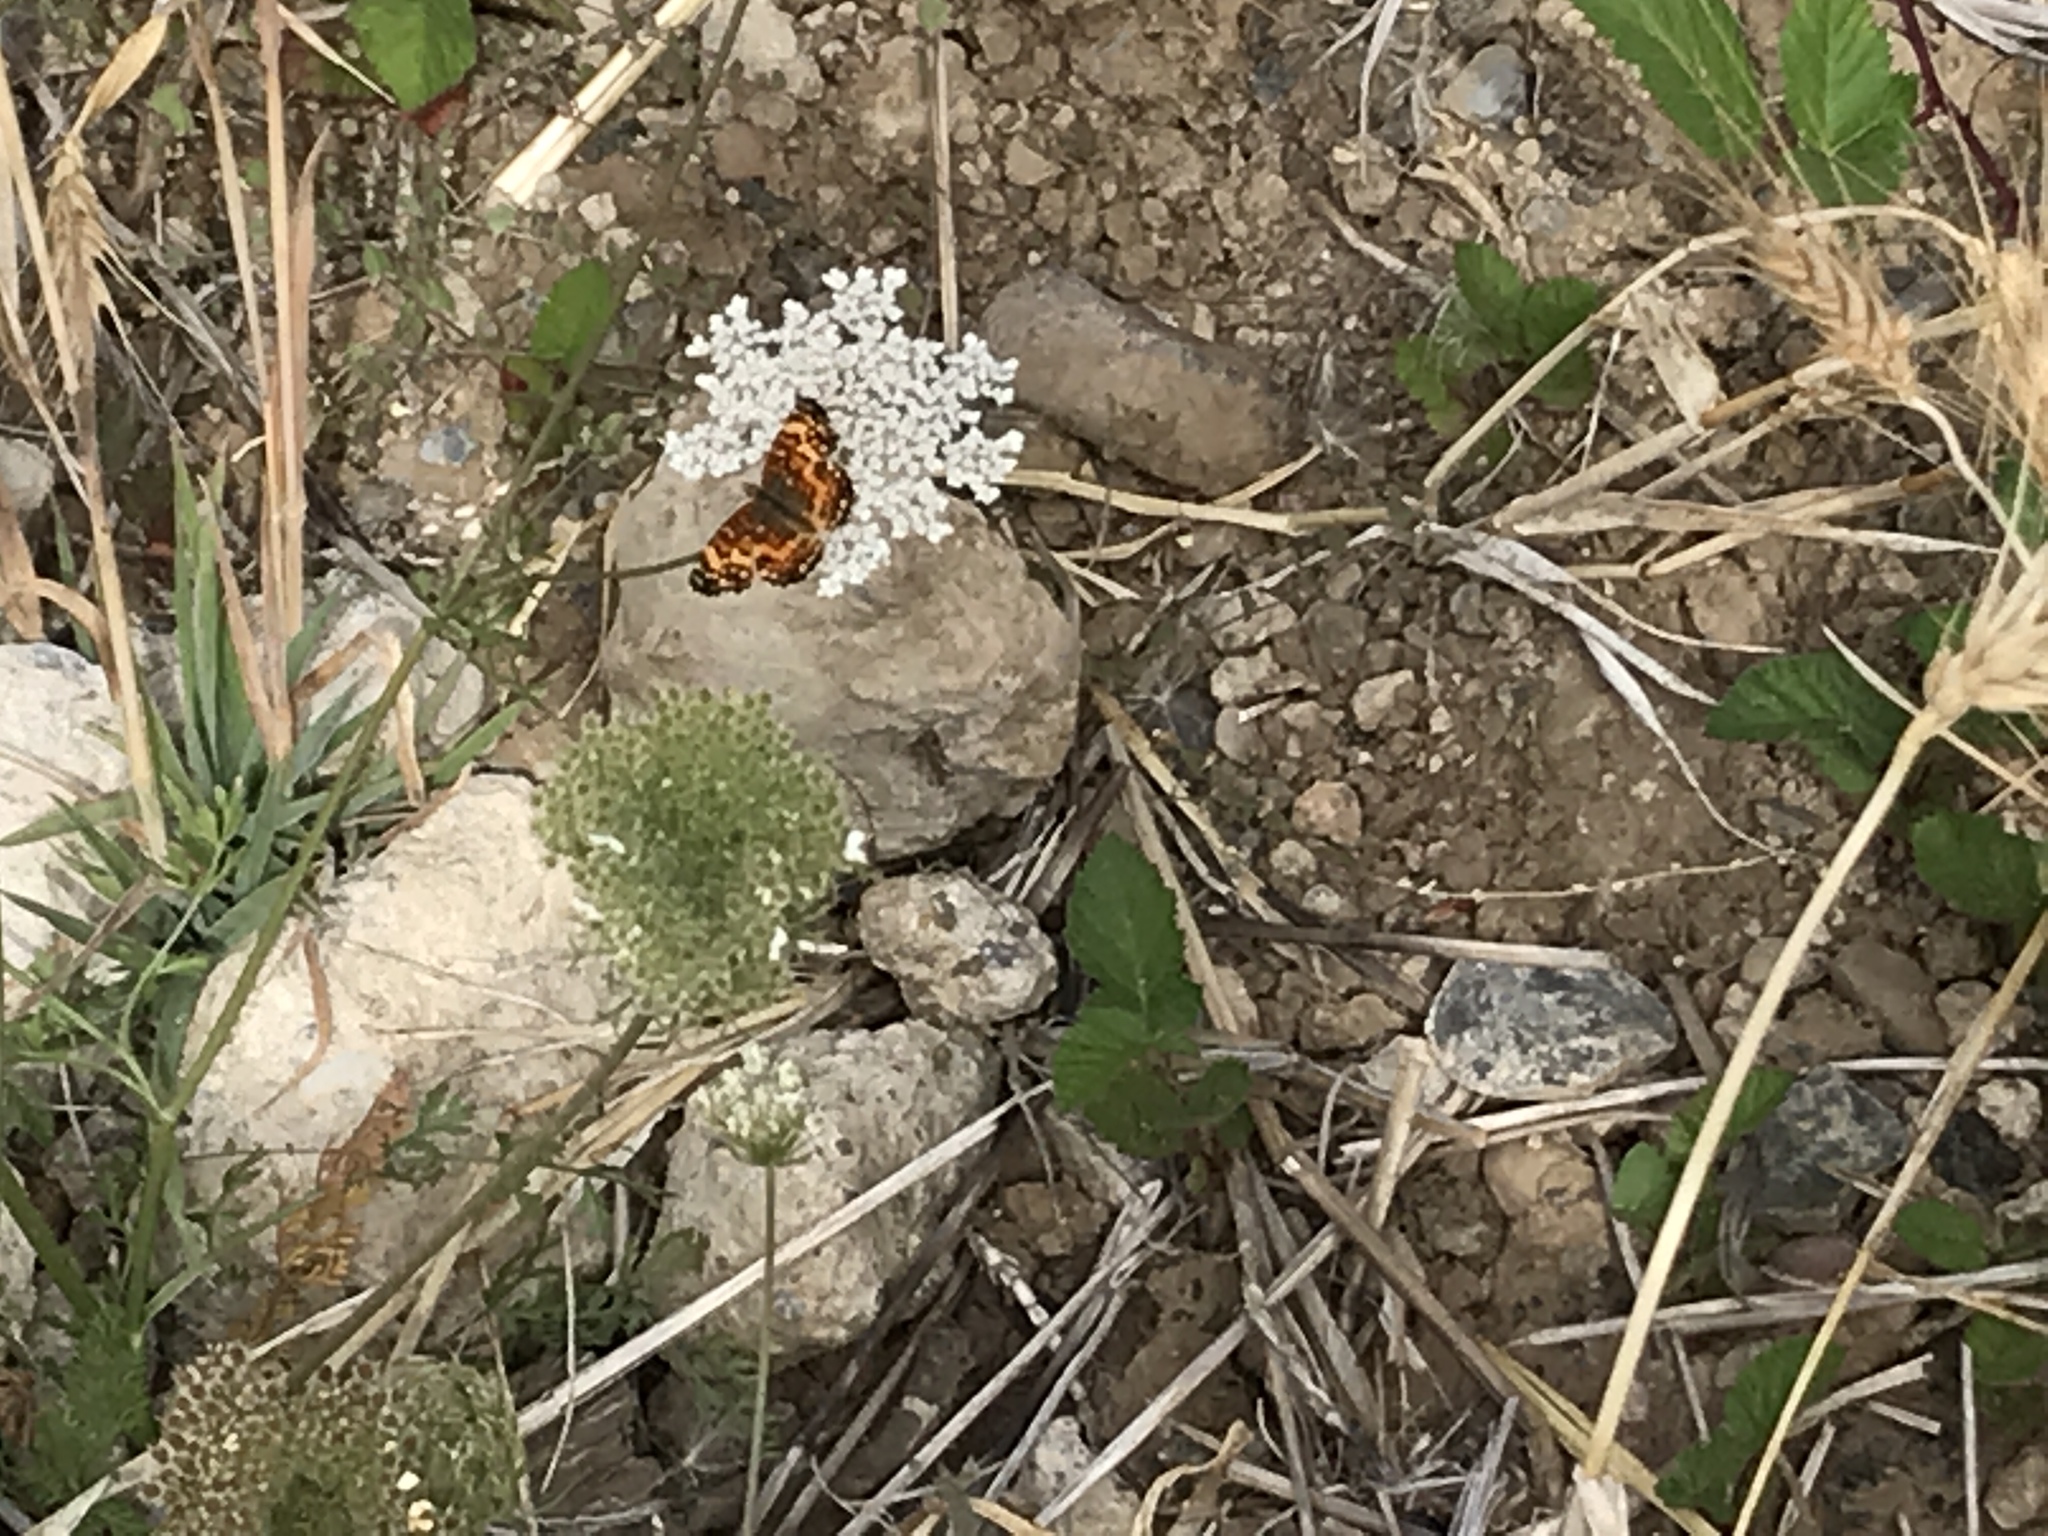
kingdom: Animalia
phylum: Arthropoda
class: Insecta
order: Lepidoptera
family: Nymphalidae
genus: Eresia
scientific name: Eresia aveyrona
